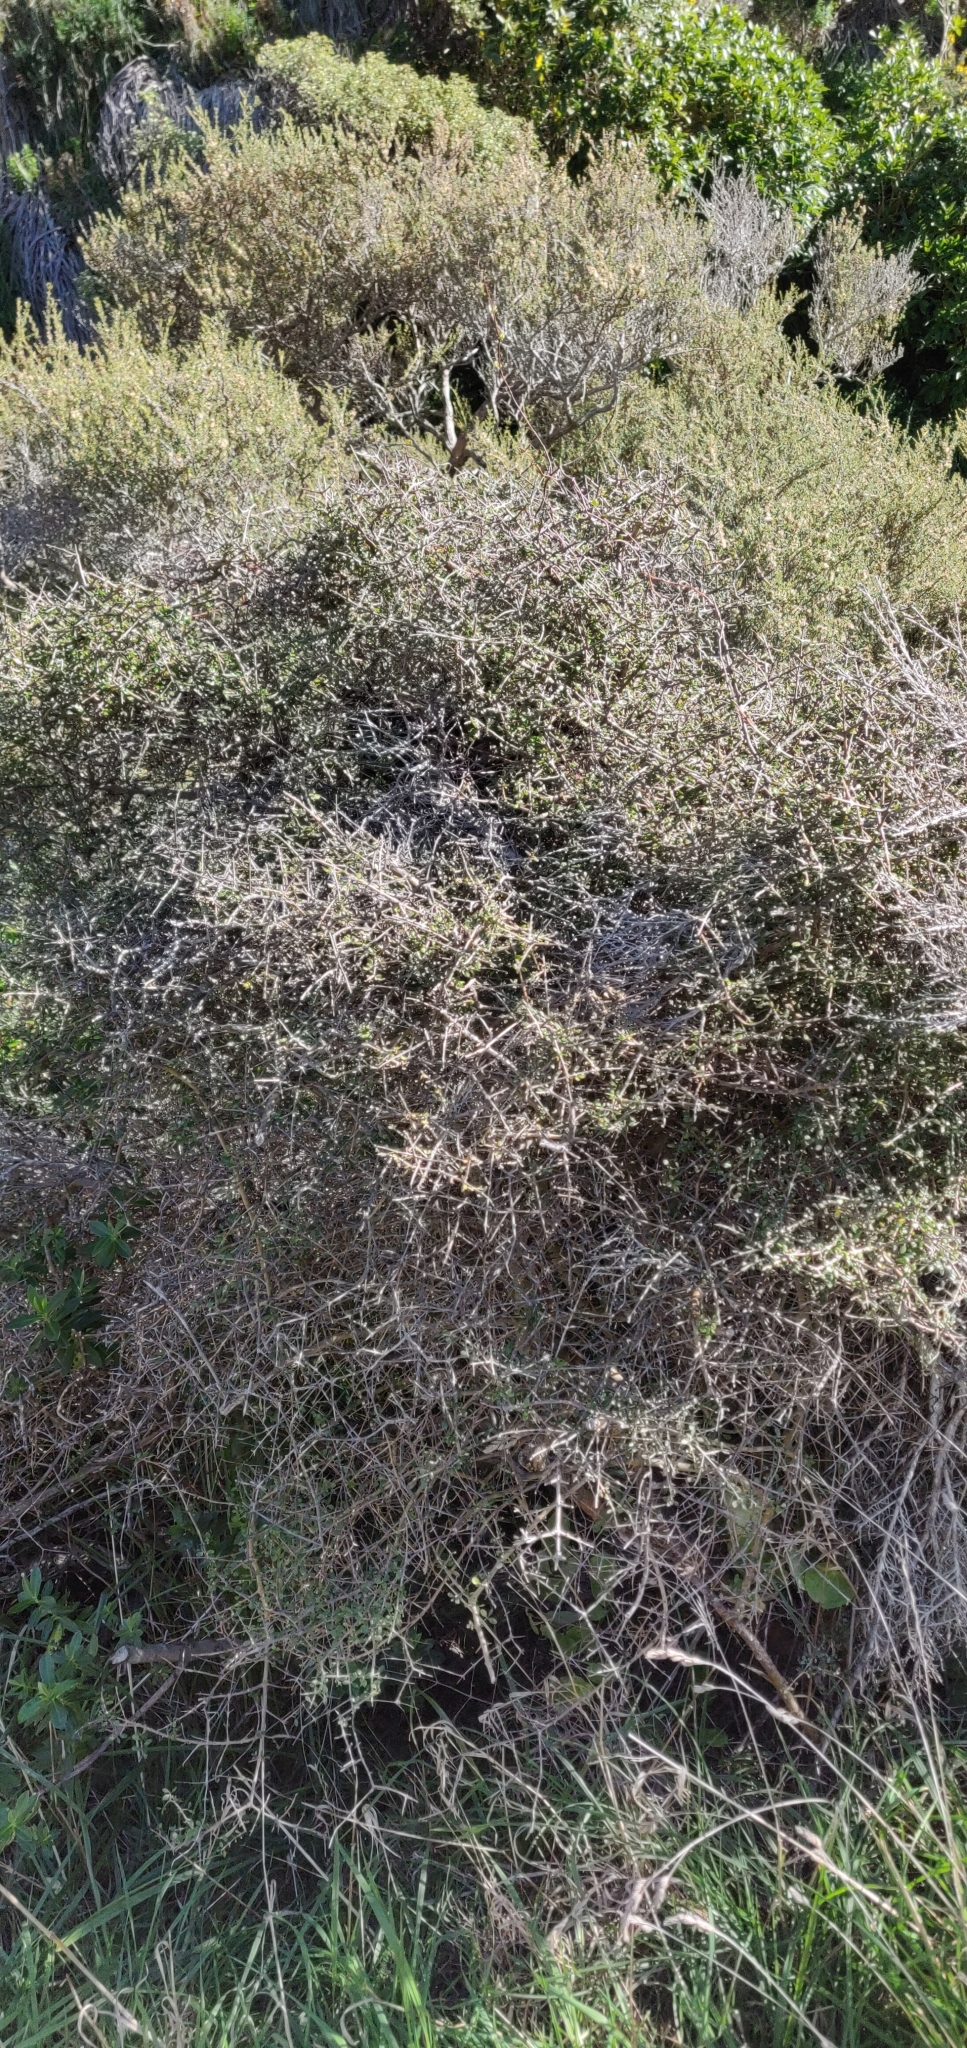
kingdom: Plantae
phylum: Tracheophyta
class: Magnoliopsida
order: Gentianales
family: Rubiaceae
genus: Coprosma
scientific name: Coprosma propinqua
